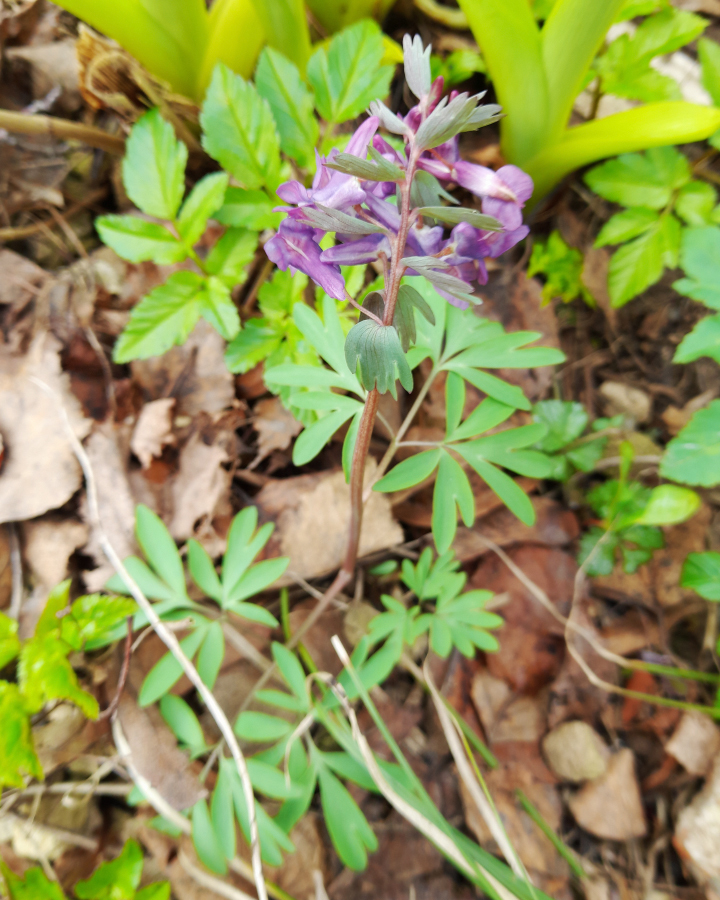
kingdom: Plantae
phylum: Tracheophyta
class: Magnoliopsida
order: Ranunculales
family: Papaveraceae
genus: Corydalis
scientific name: Corydalis solida
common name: Bird-in-a-bush
